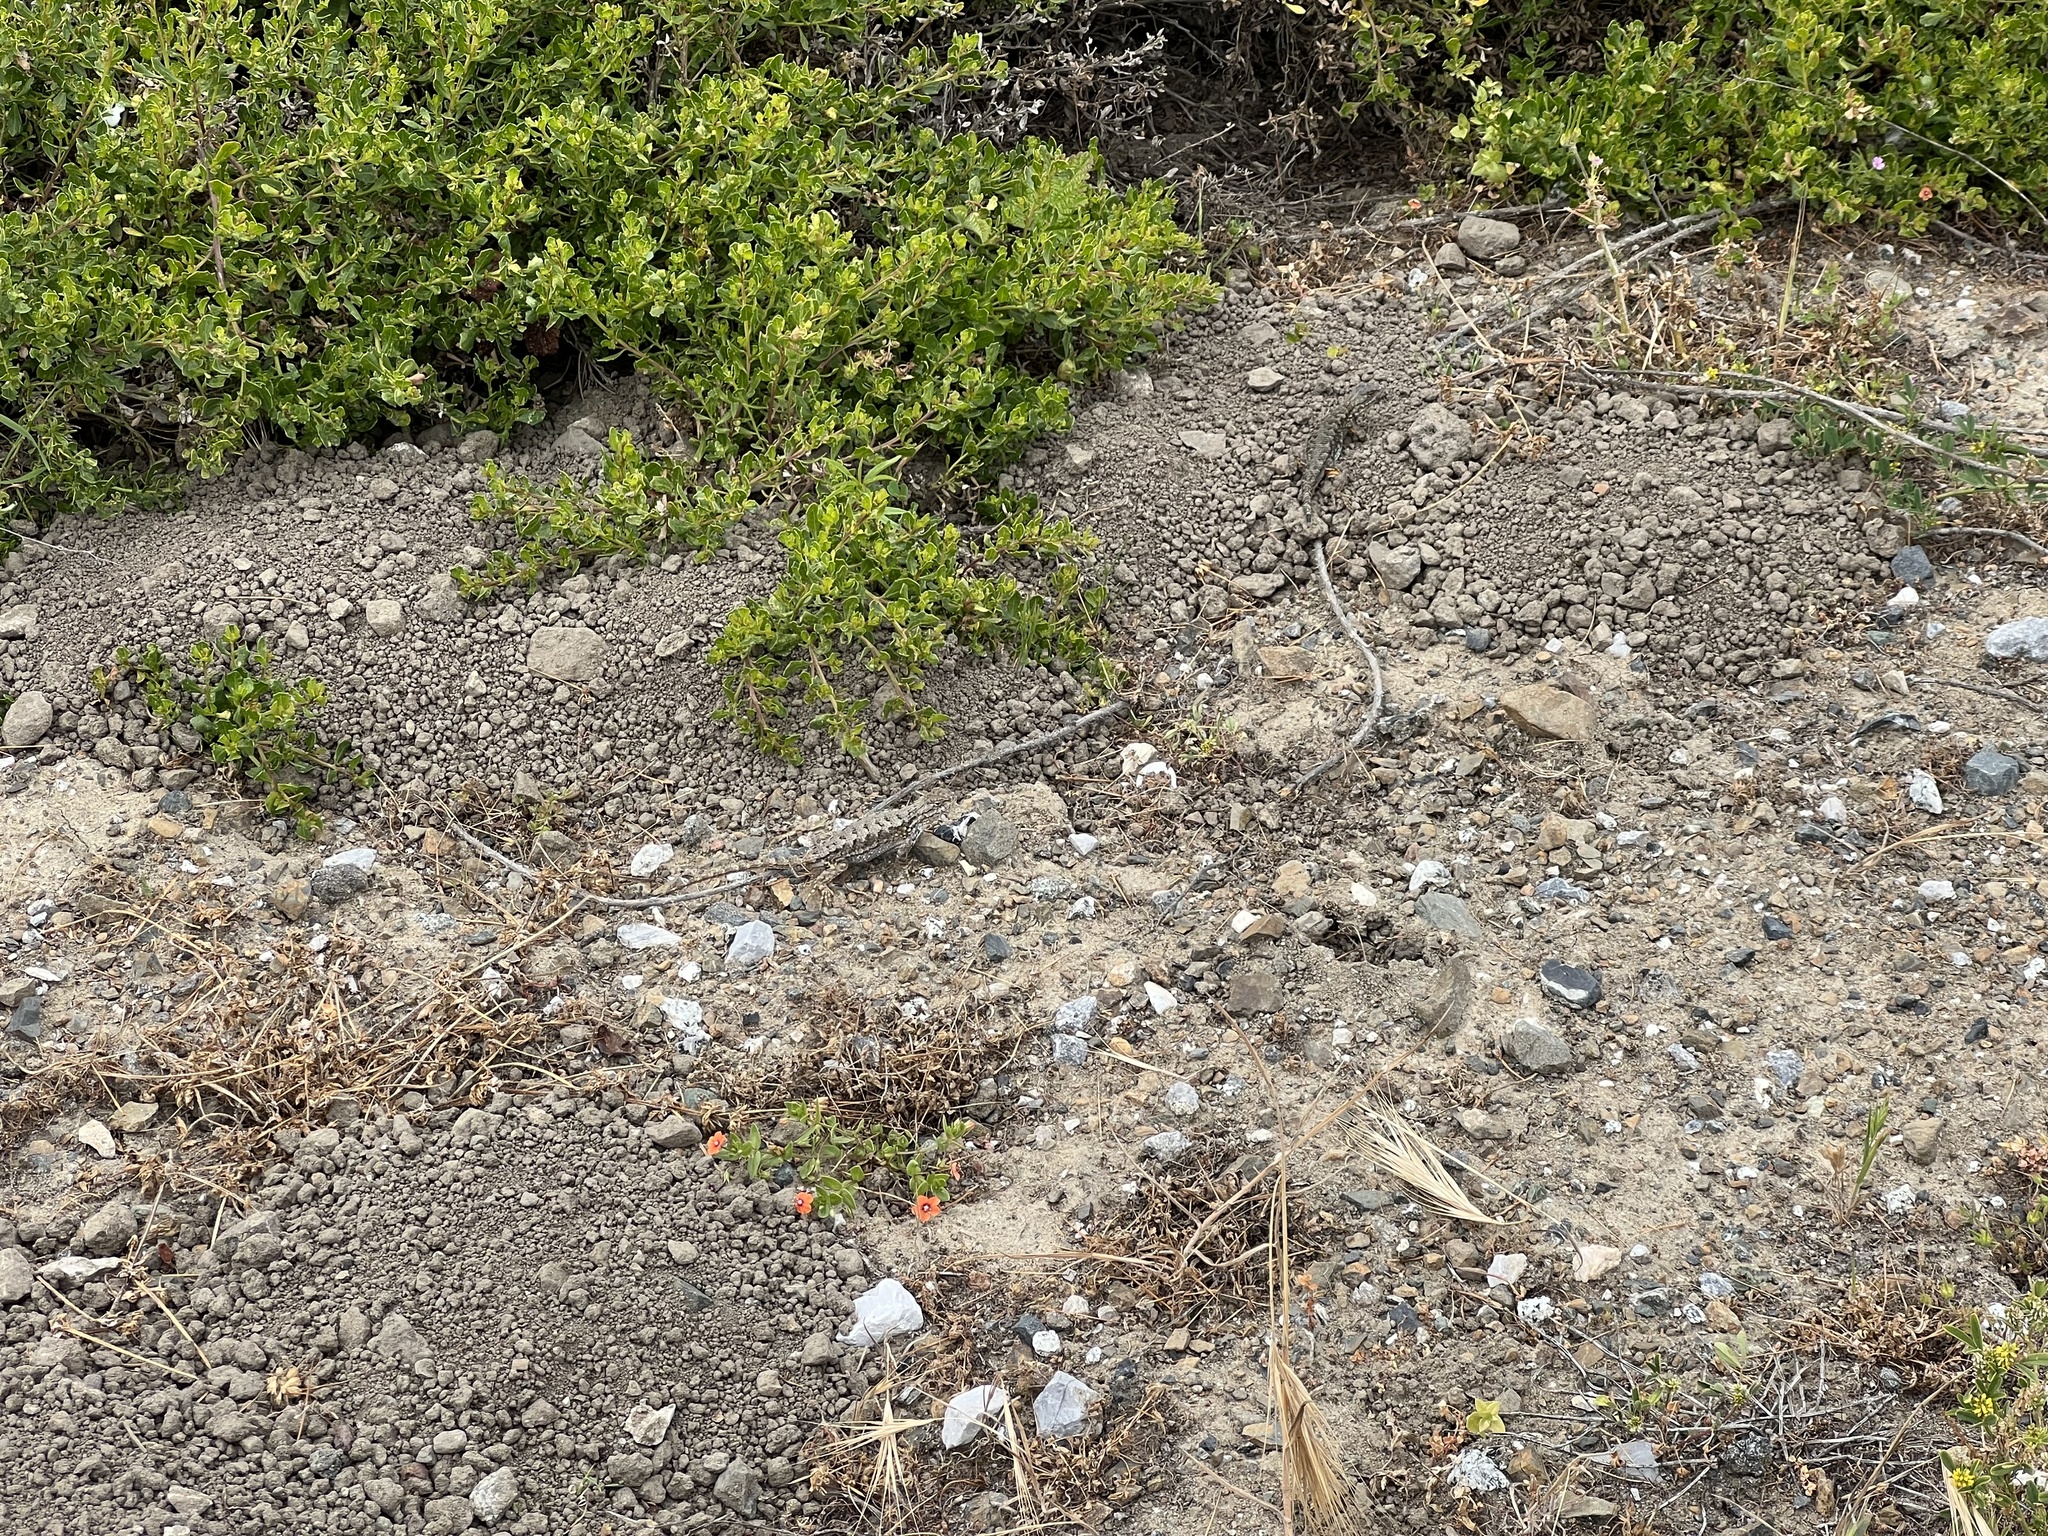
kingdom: Animalia
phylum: Chordata
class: Squamata
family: Phrynosomatidae
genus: Sceloporus
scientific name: Sceloporus occidentalis
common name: Western fence lizard
